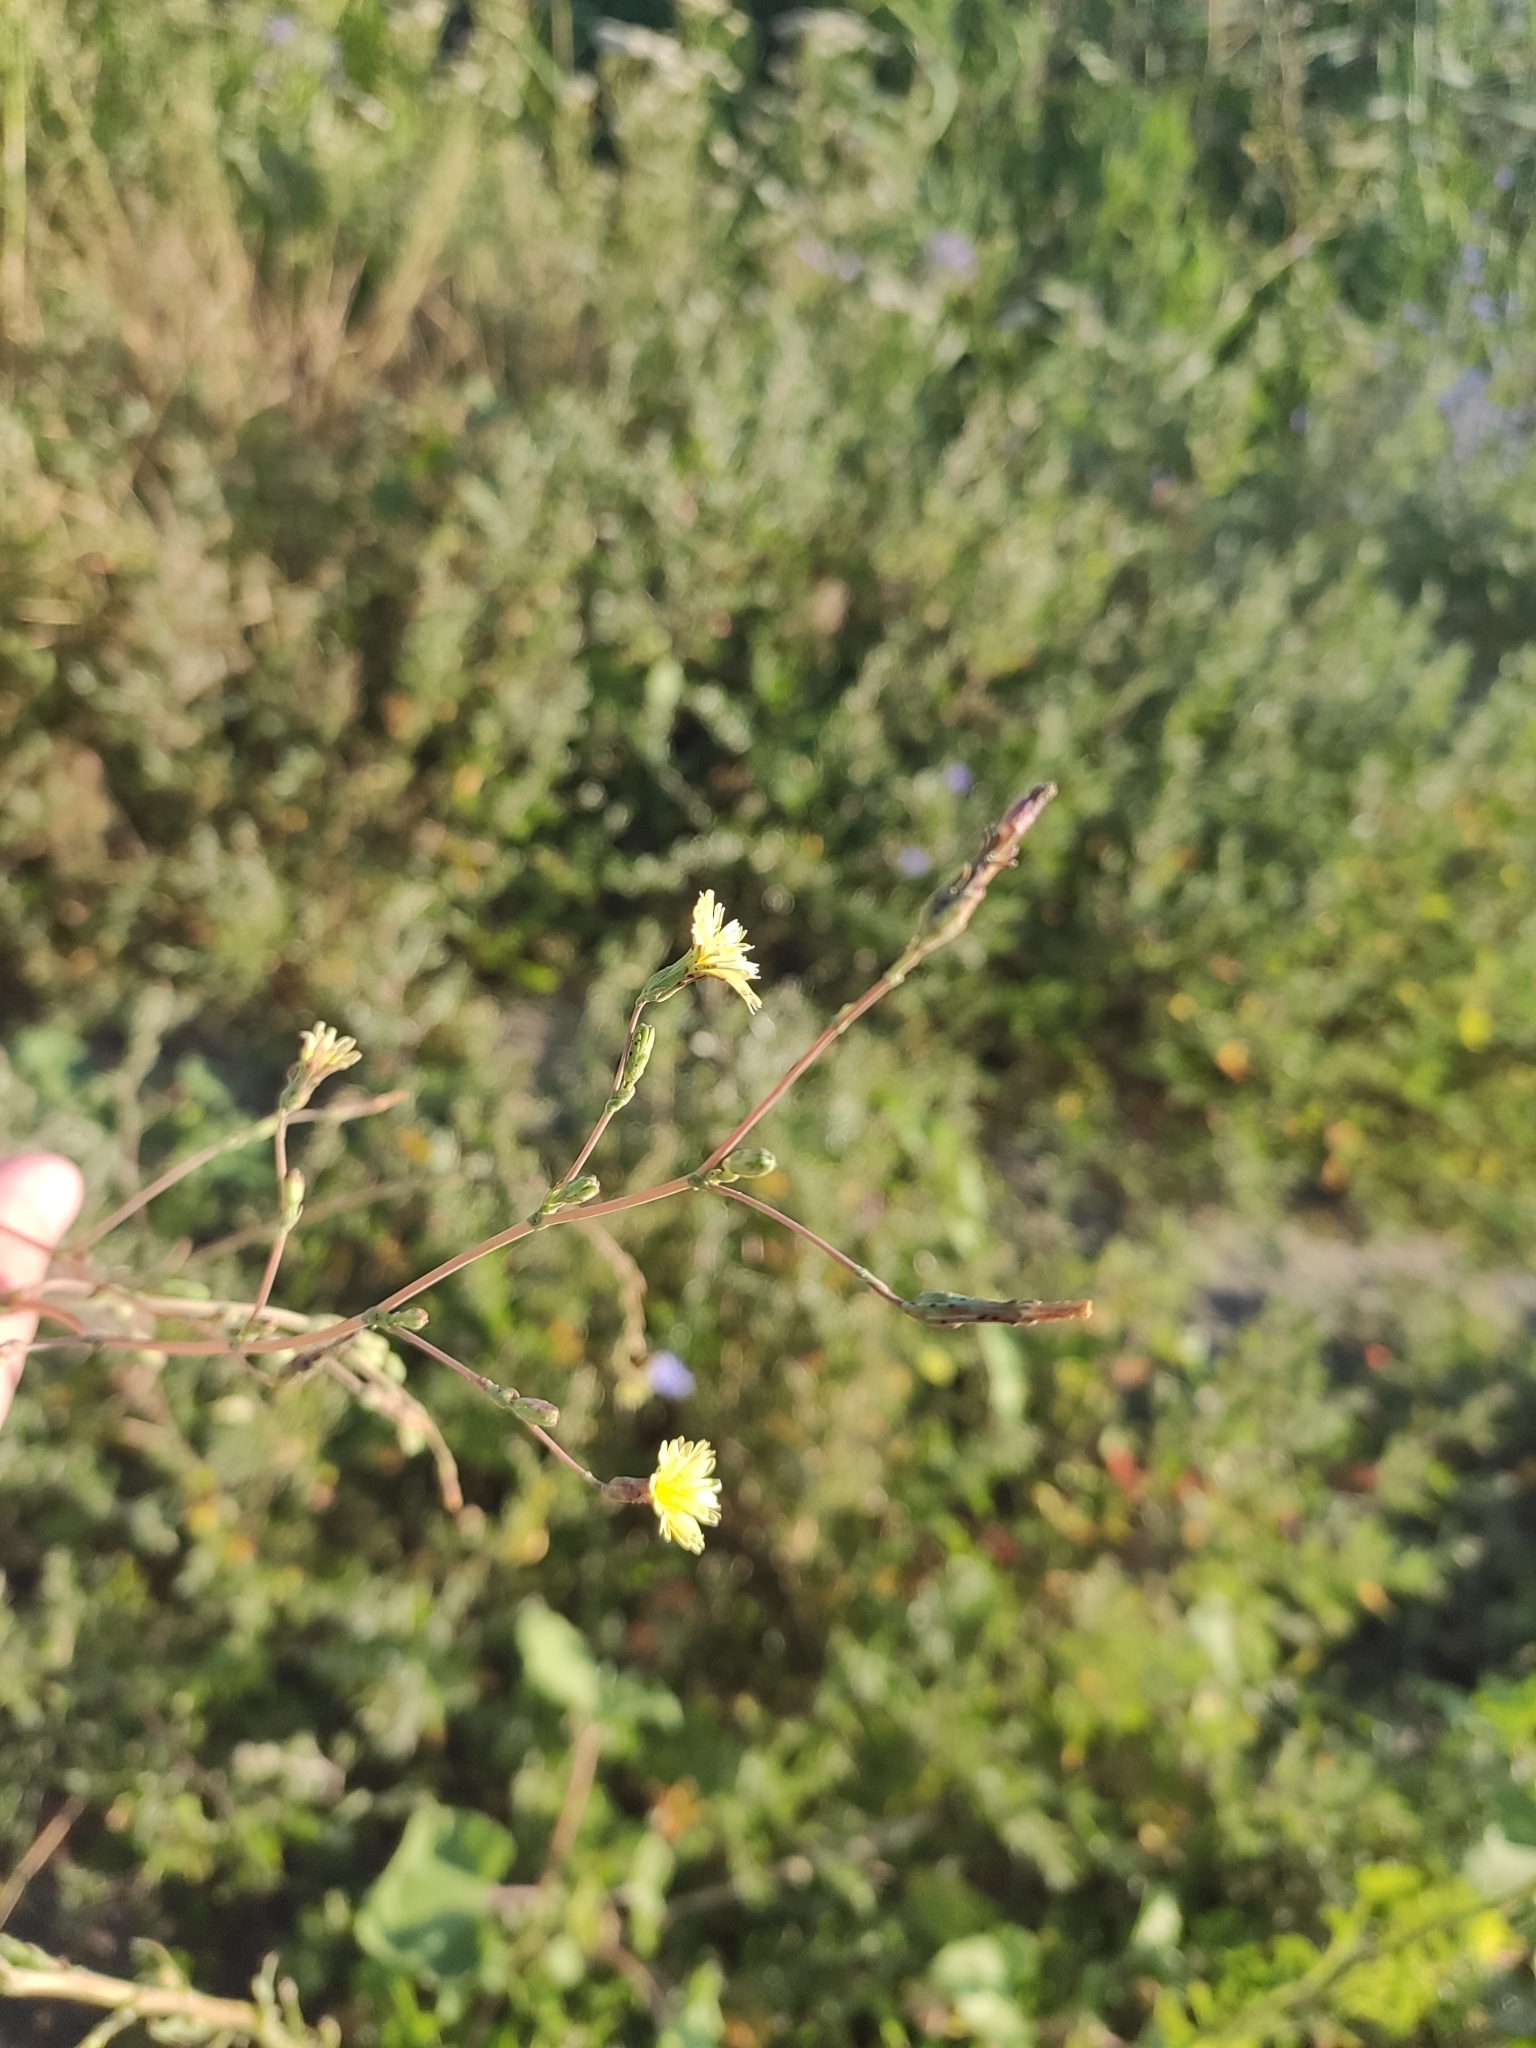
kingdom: Plantae
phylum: Tracheophyta
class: Magnoliopsida
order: Asterales
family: Asteraceae
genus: Lactuca
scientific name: Lactuca serriola
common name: Prickly lettuce
